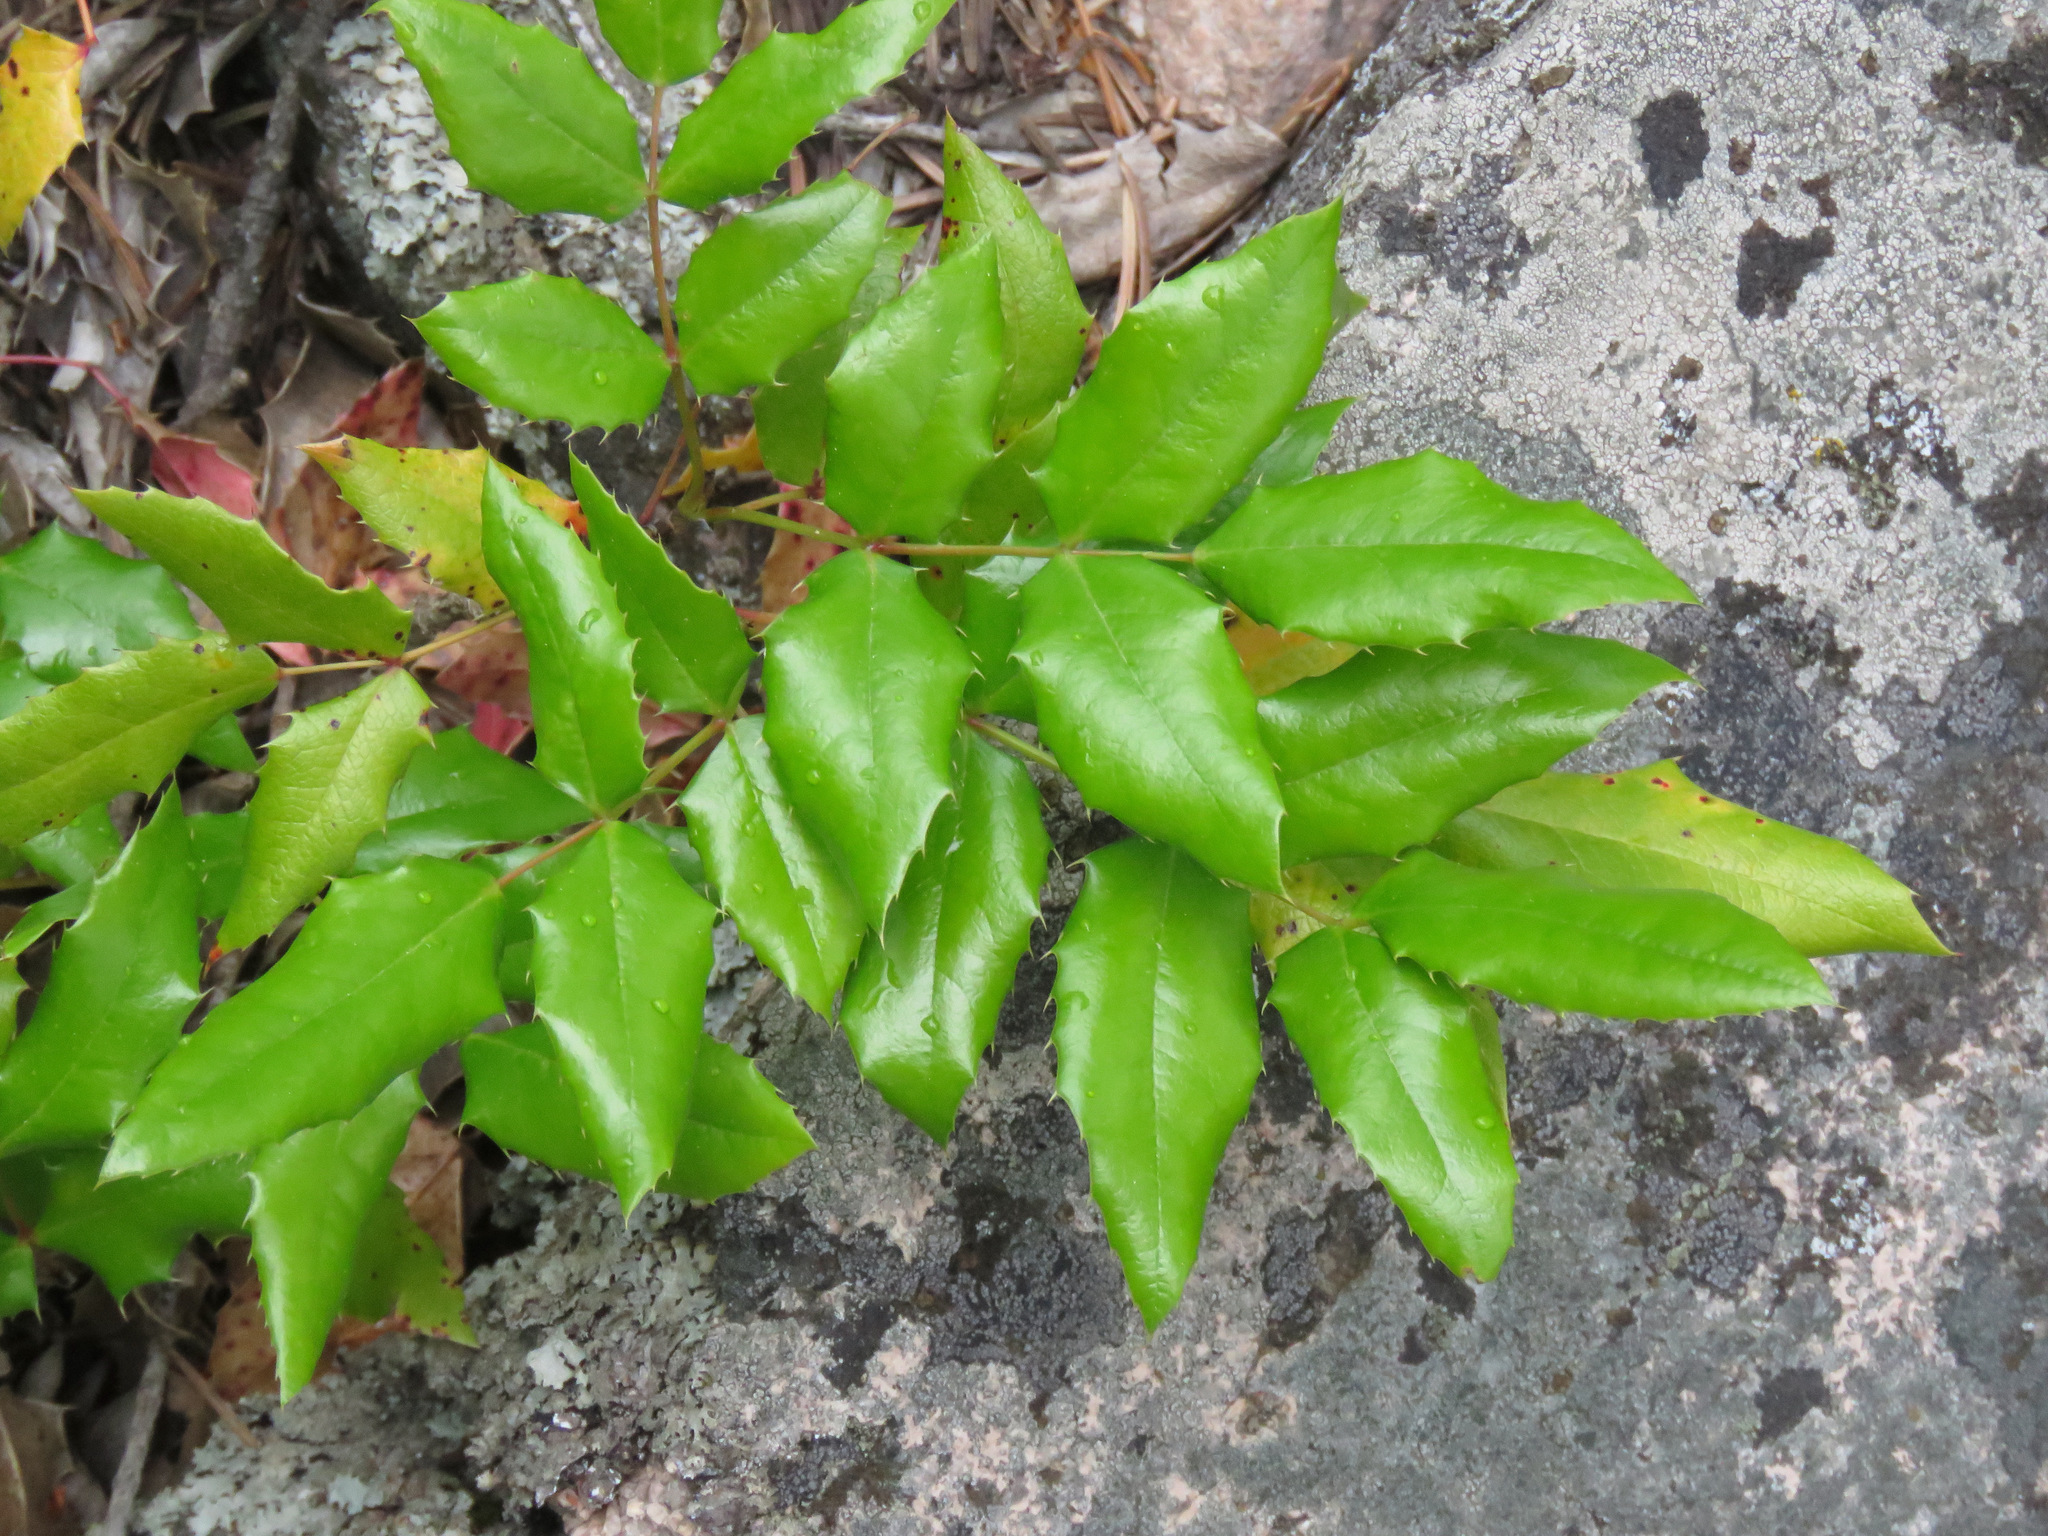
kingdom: Plantae
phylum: Tracheophyta
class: Magnoliopsida
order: Ranunculales
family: Berberidaceae
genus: Mahonia
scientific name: Mahonia aquifolium
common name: Oregon-grape
